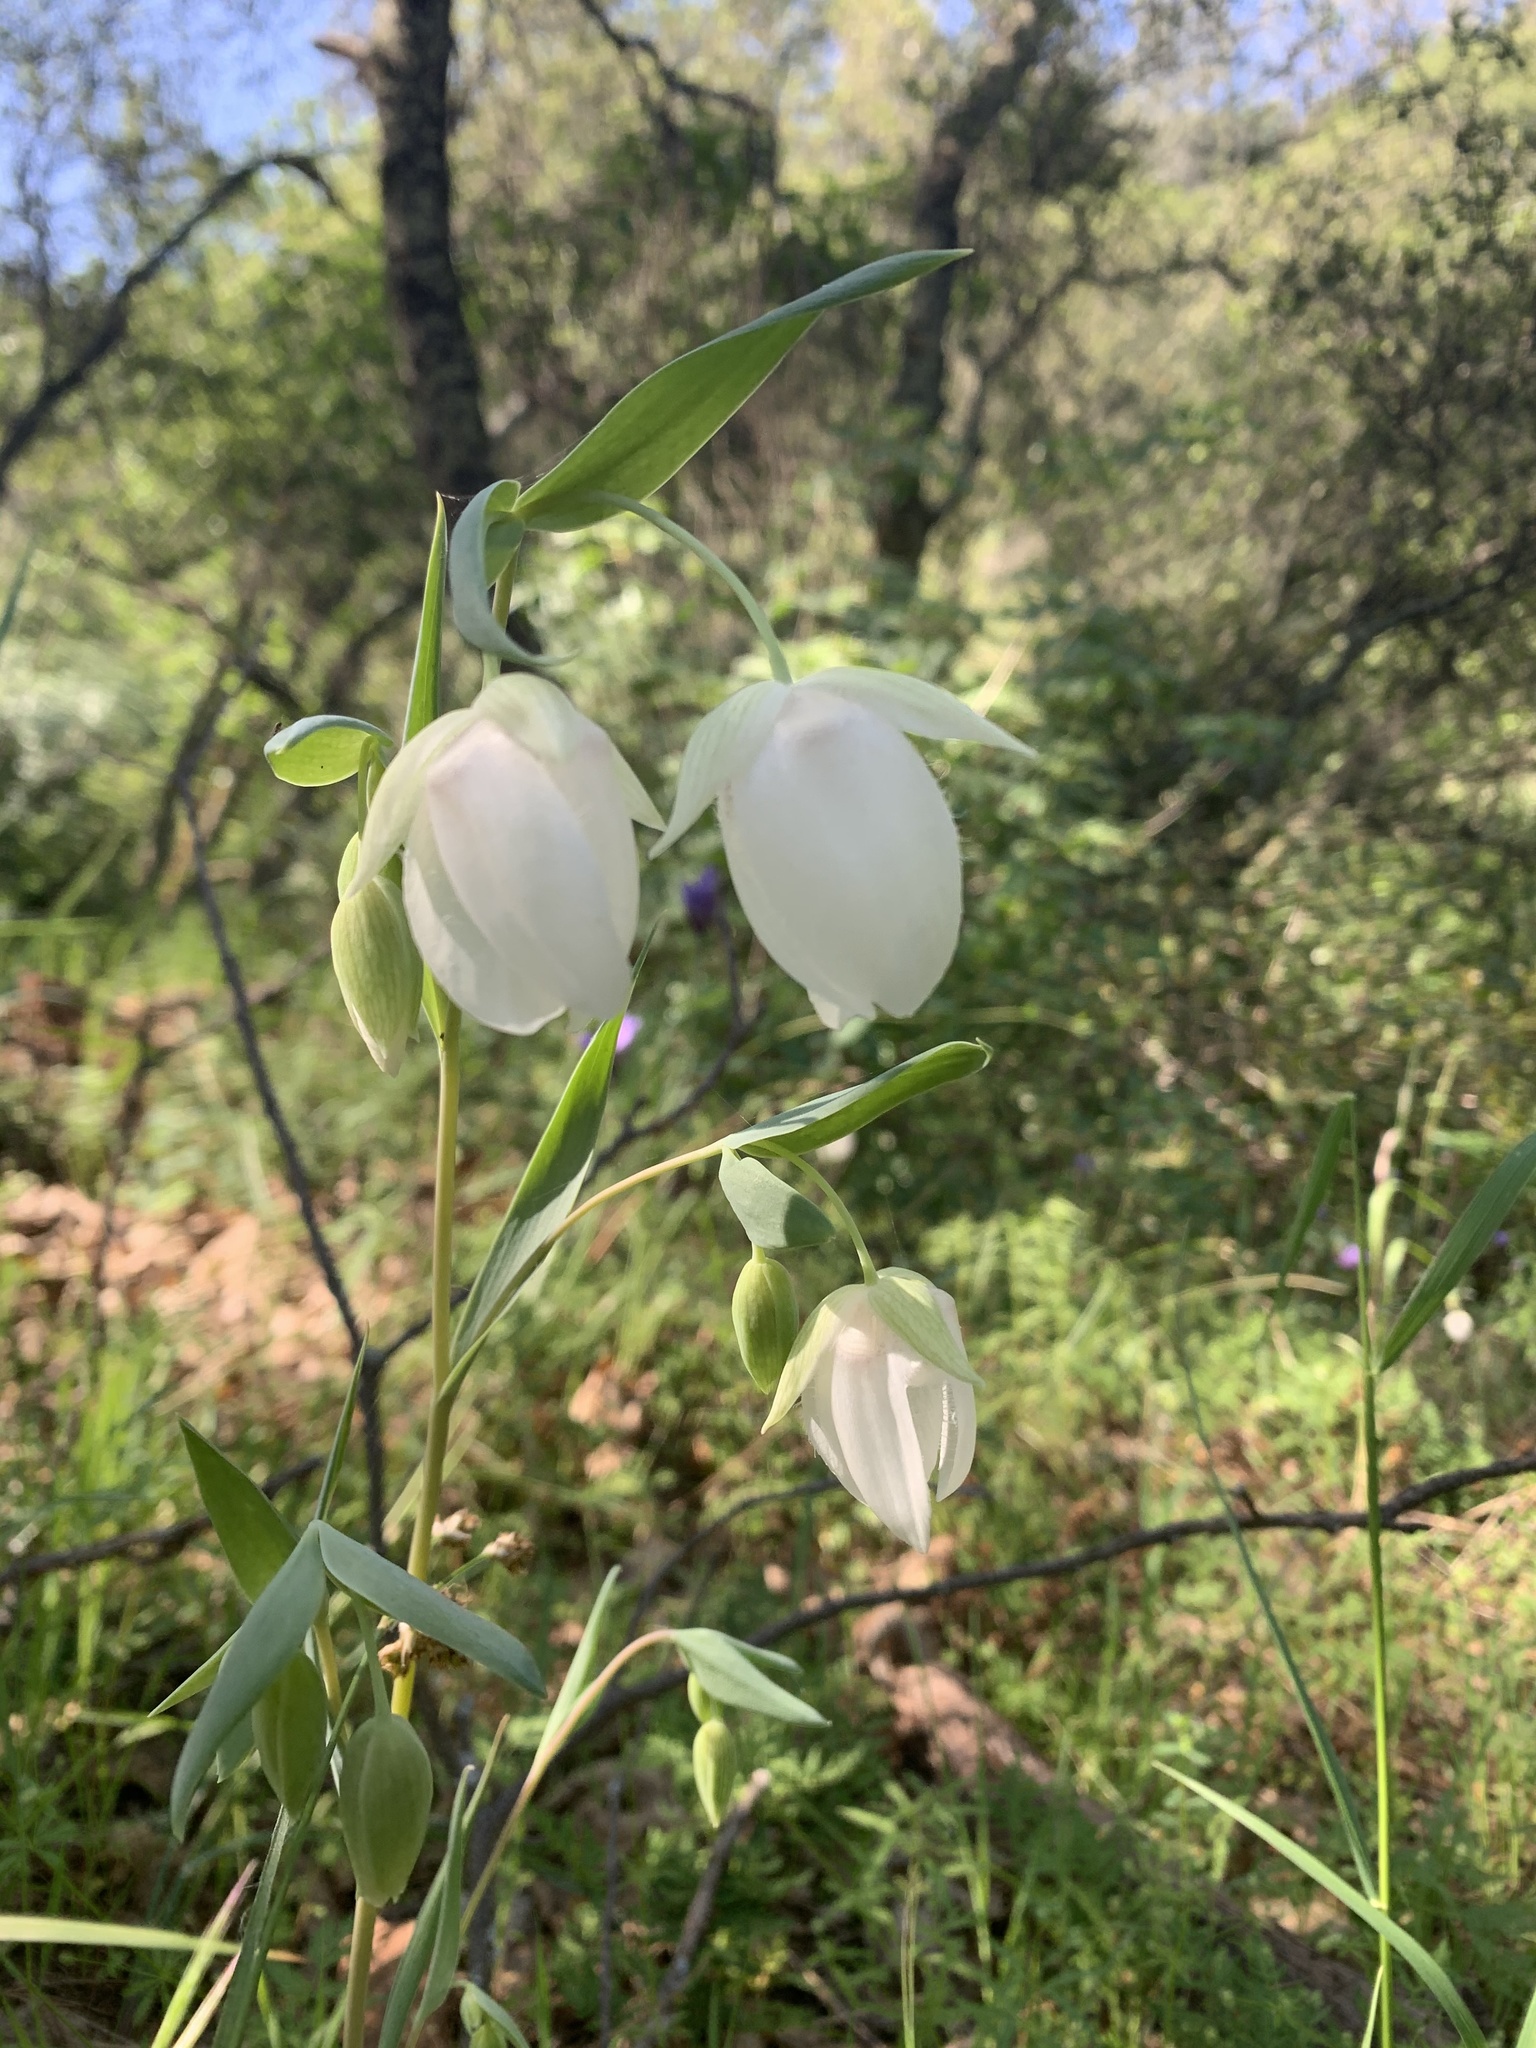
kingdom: Plantae
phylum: Tracheophyta
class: Liliopsida
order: Liliales
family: Liliaceae
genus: Calochortus
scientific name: Calochortus albus
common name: Fairy-lantern
